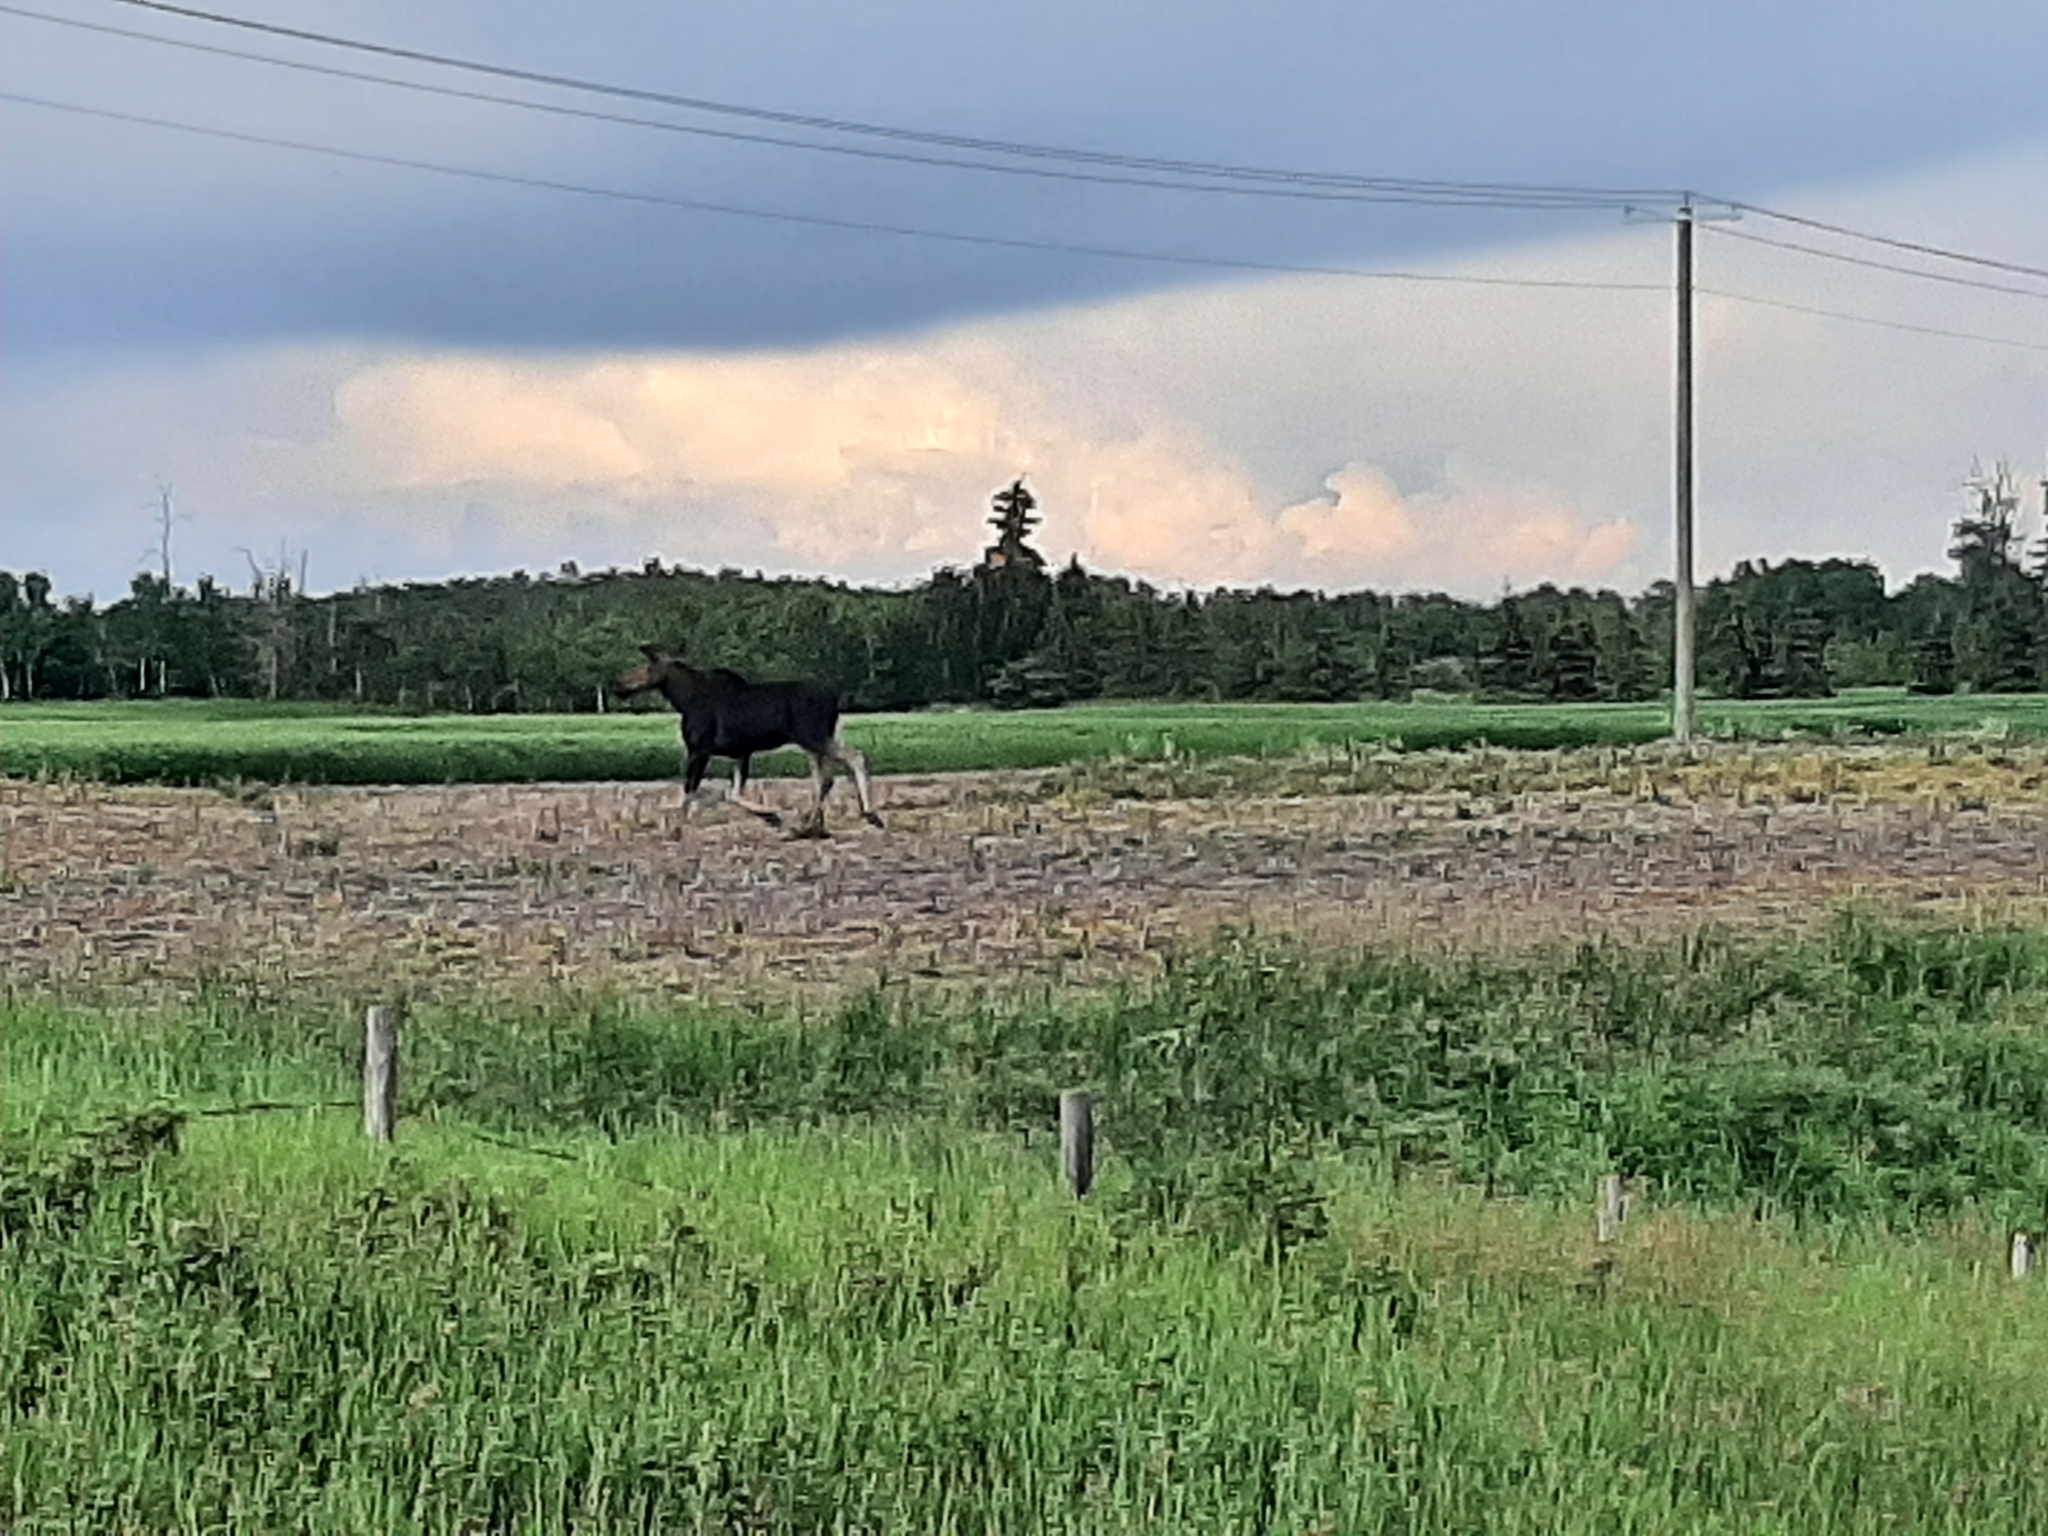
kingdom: Animalia
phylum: Chordata
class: Mammalia
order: Artiodactyla
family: Cervidae
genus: Alces
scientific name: Alces alces
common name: Moose
